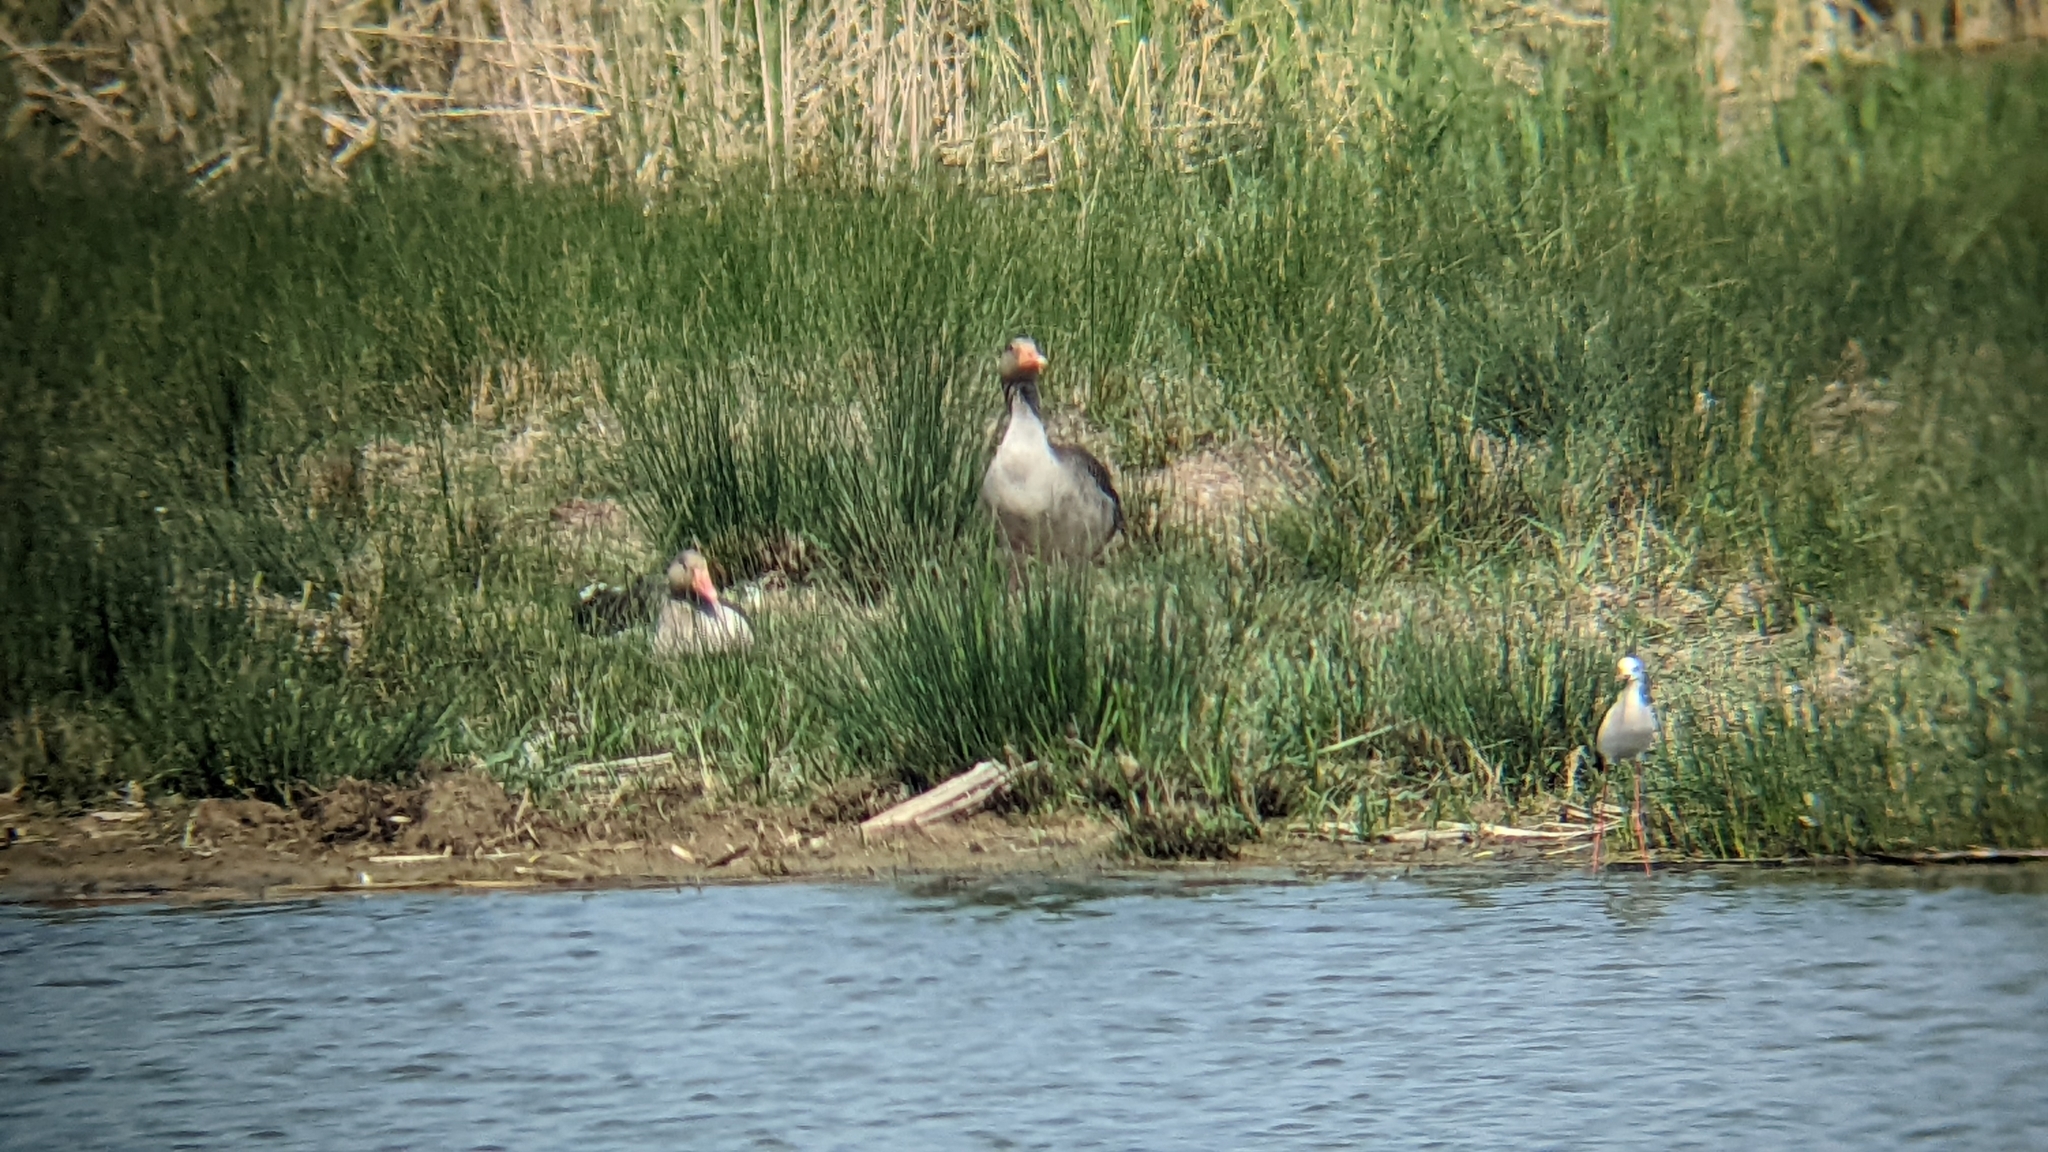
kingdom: Animalia
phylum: Chordata
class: Aves
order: Anseriformes
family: Anatidae
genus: Anser
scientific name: Anser anser
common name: Greylag goose
